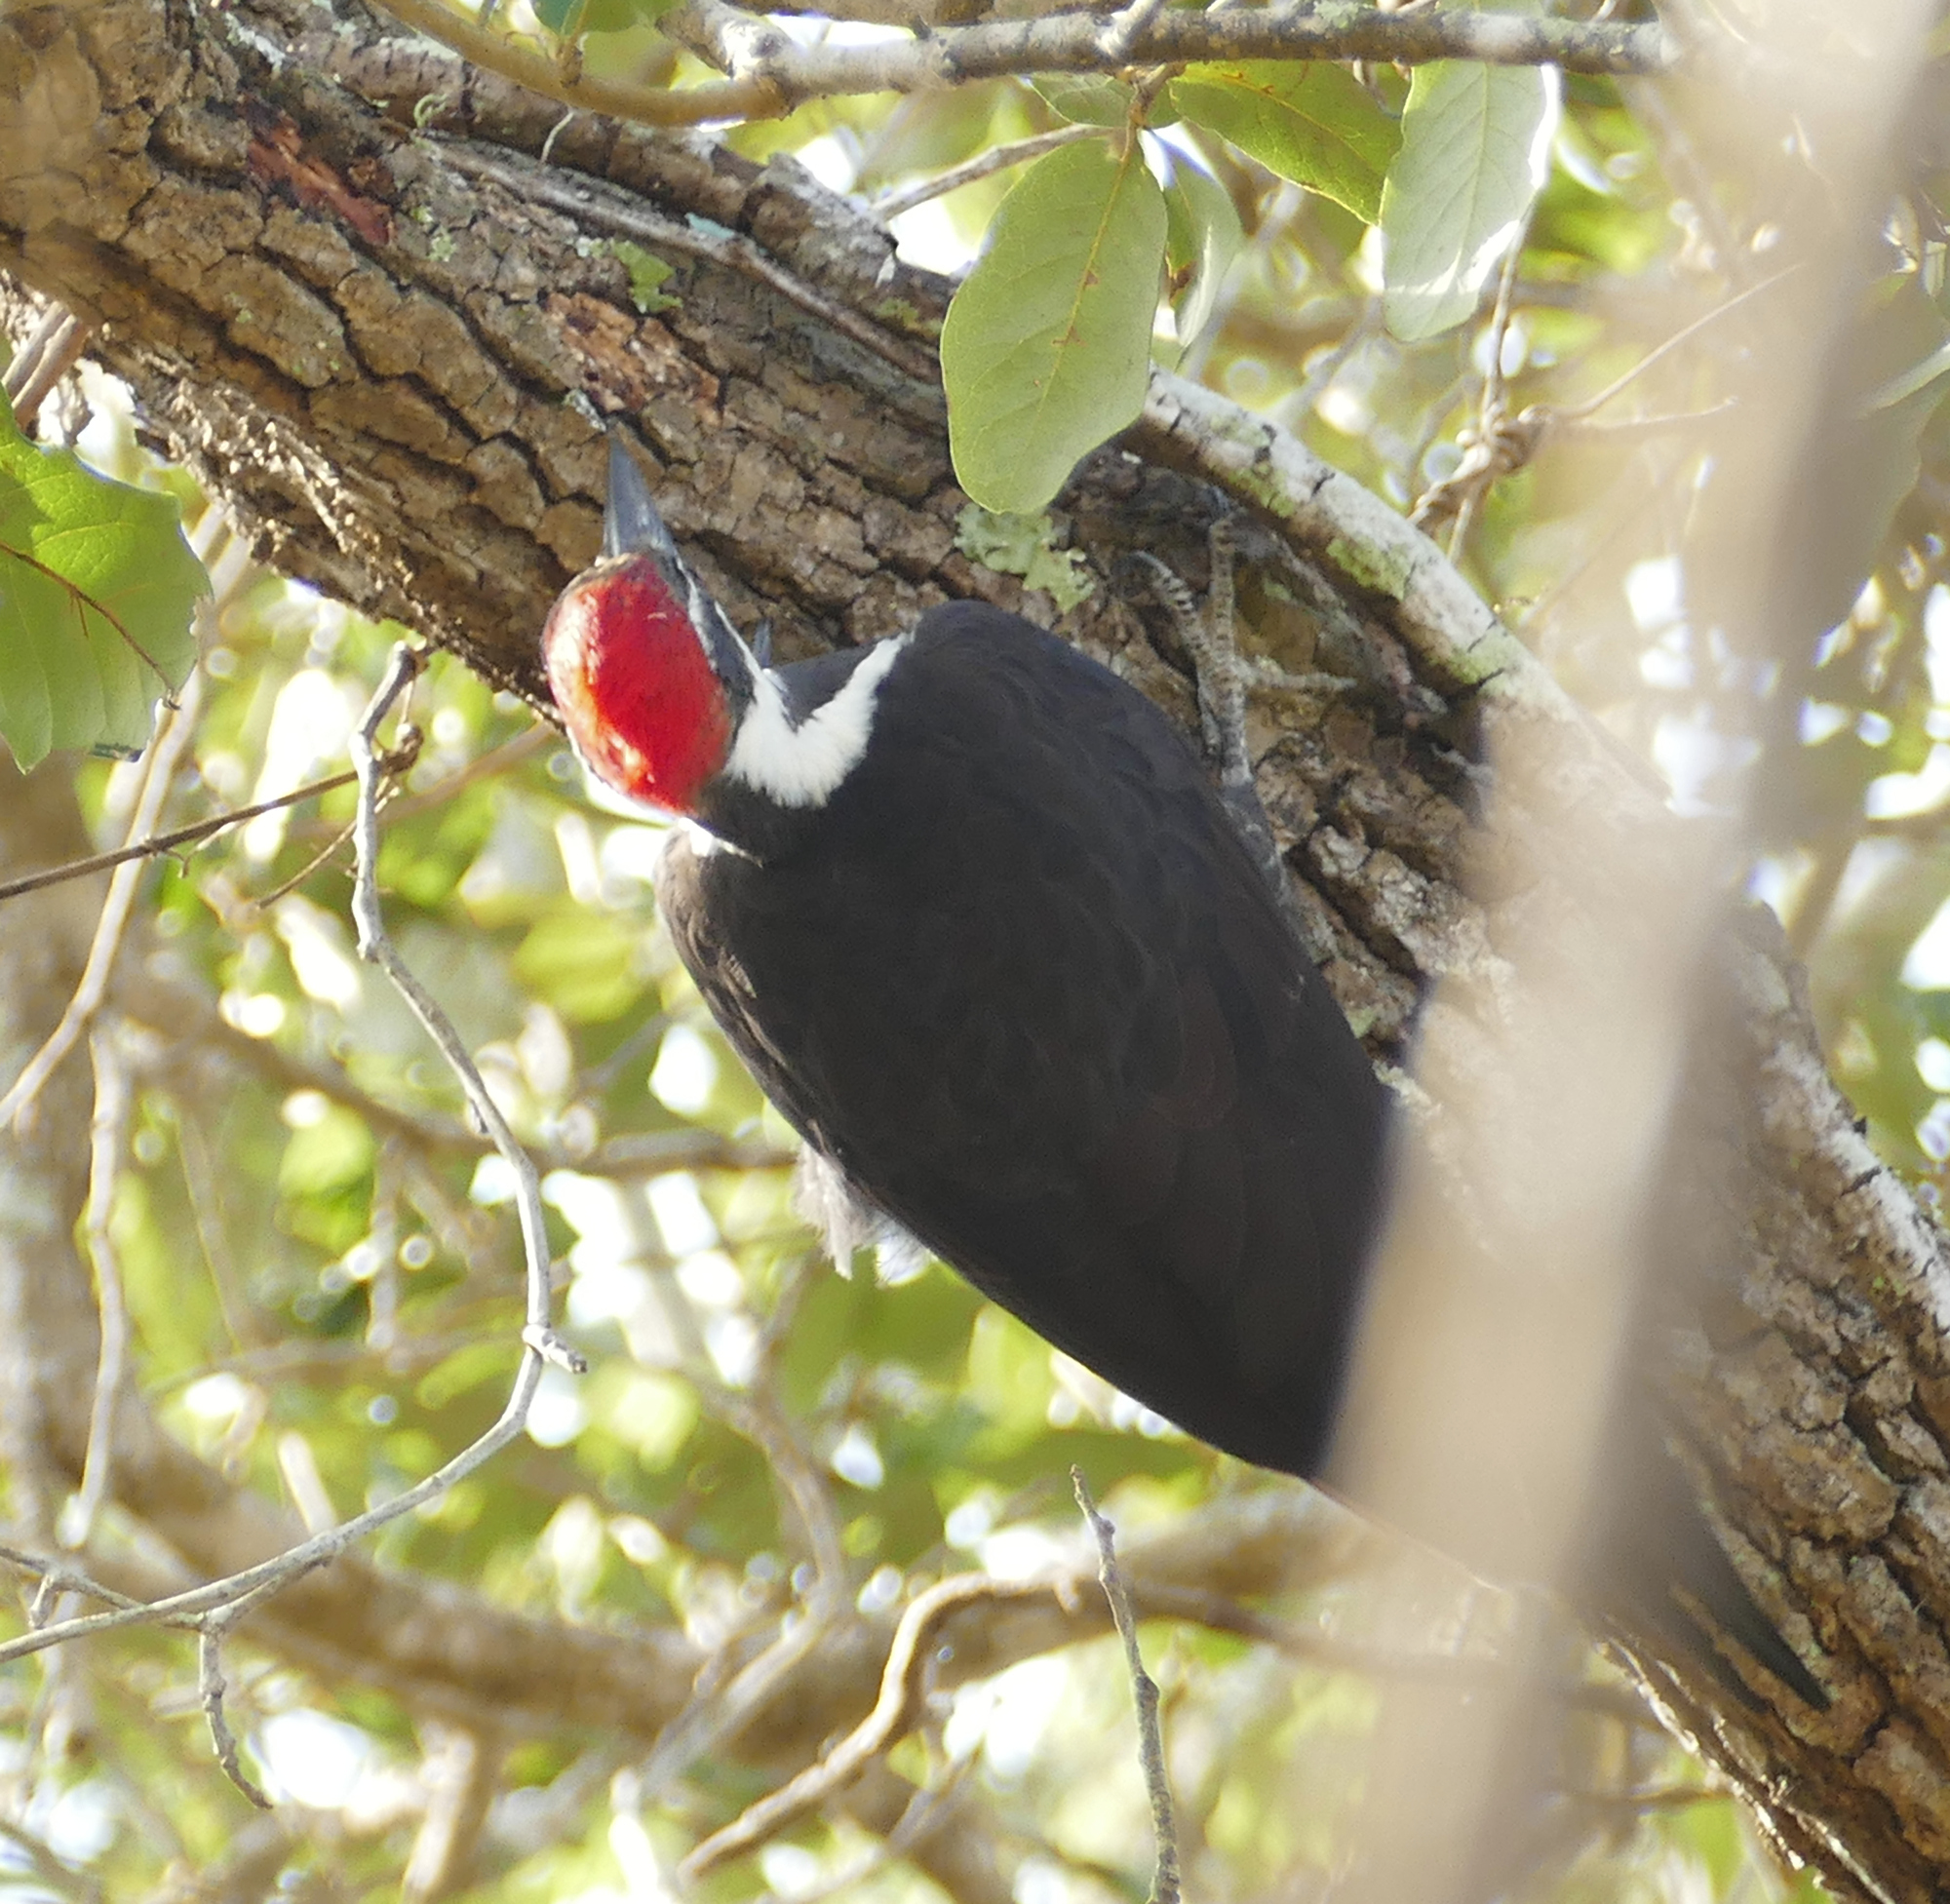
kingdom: Animalia
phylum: Chordata
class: Aves
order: Piciformes
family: Picidae
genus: Dryocopus
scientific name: Dryocopus pileatus
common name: Pileated woodpecker
